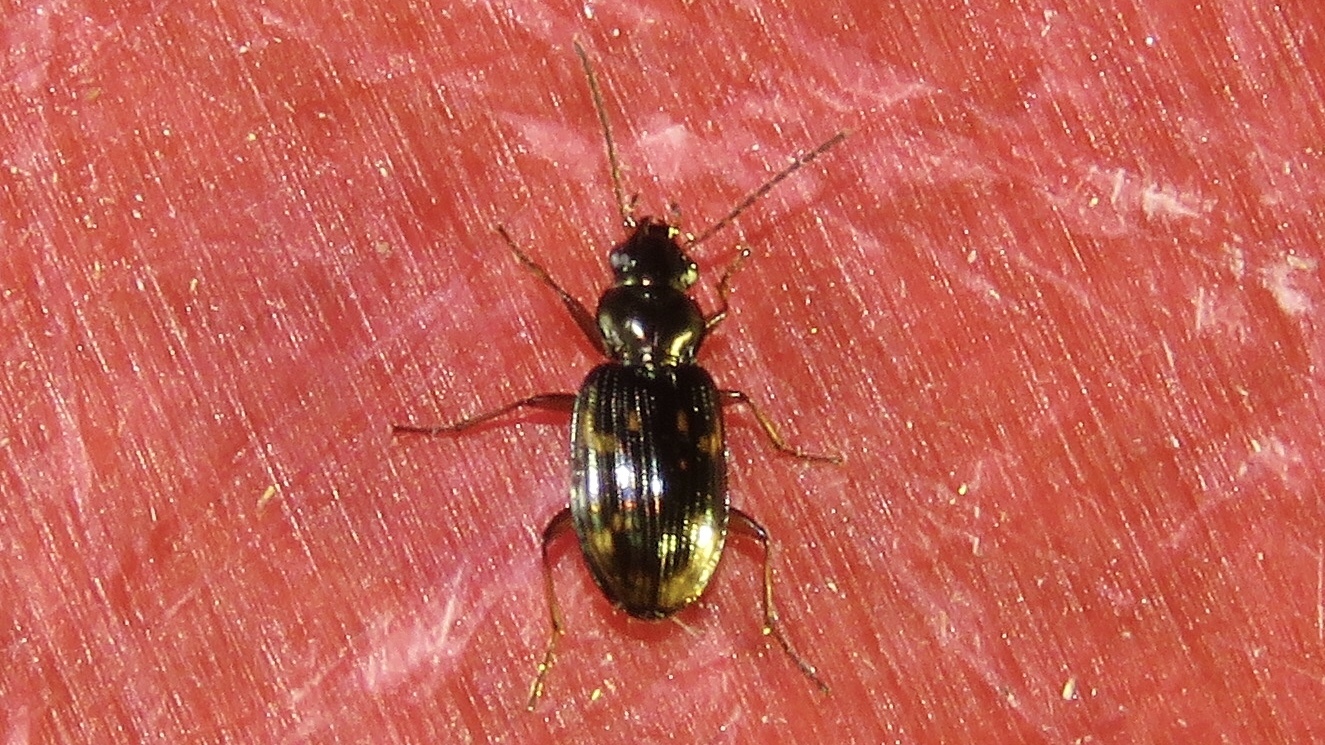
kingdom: Animalia
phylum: Arthropoda
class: Insecta
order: Coleoptera
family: Carabidae
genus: Bembidion
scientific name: Bembidion patruele
